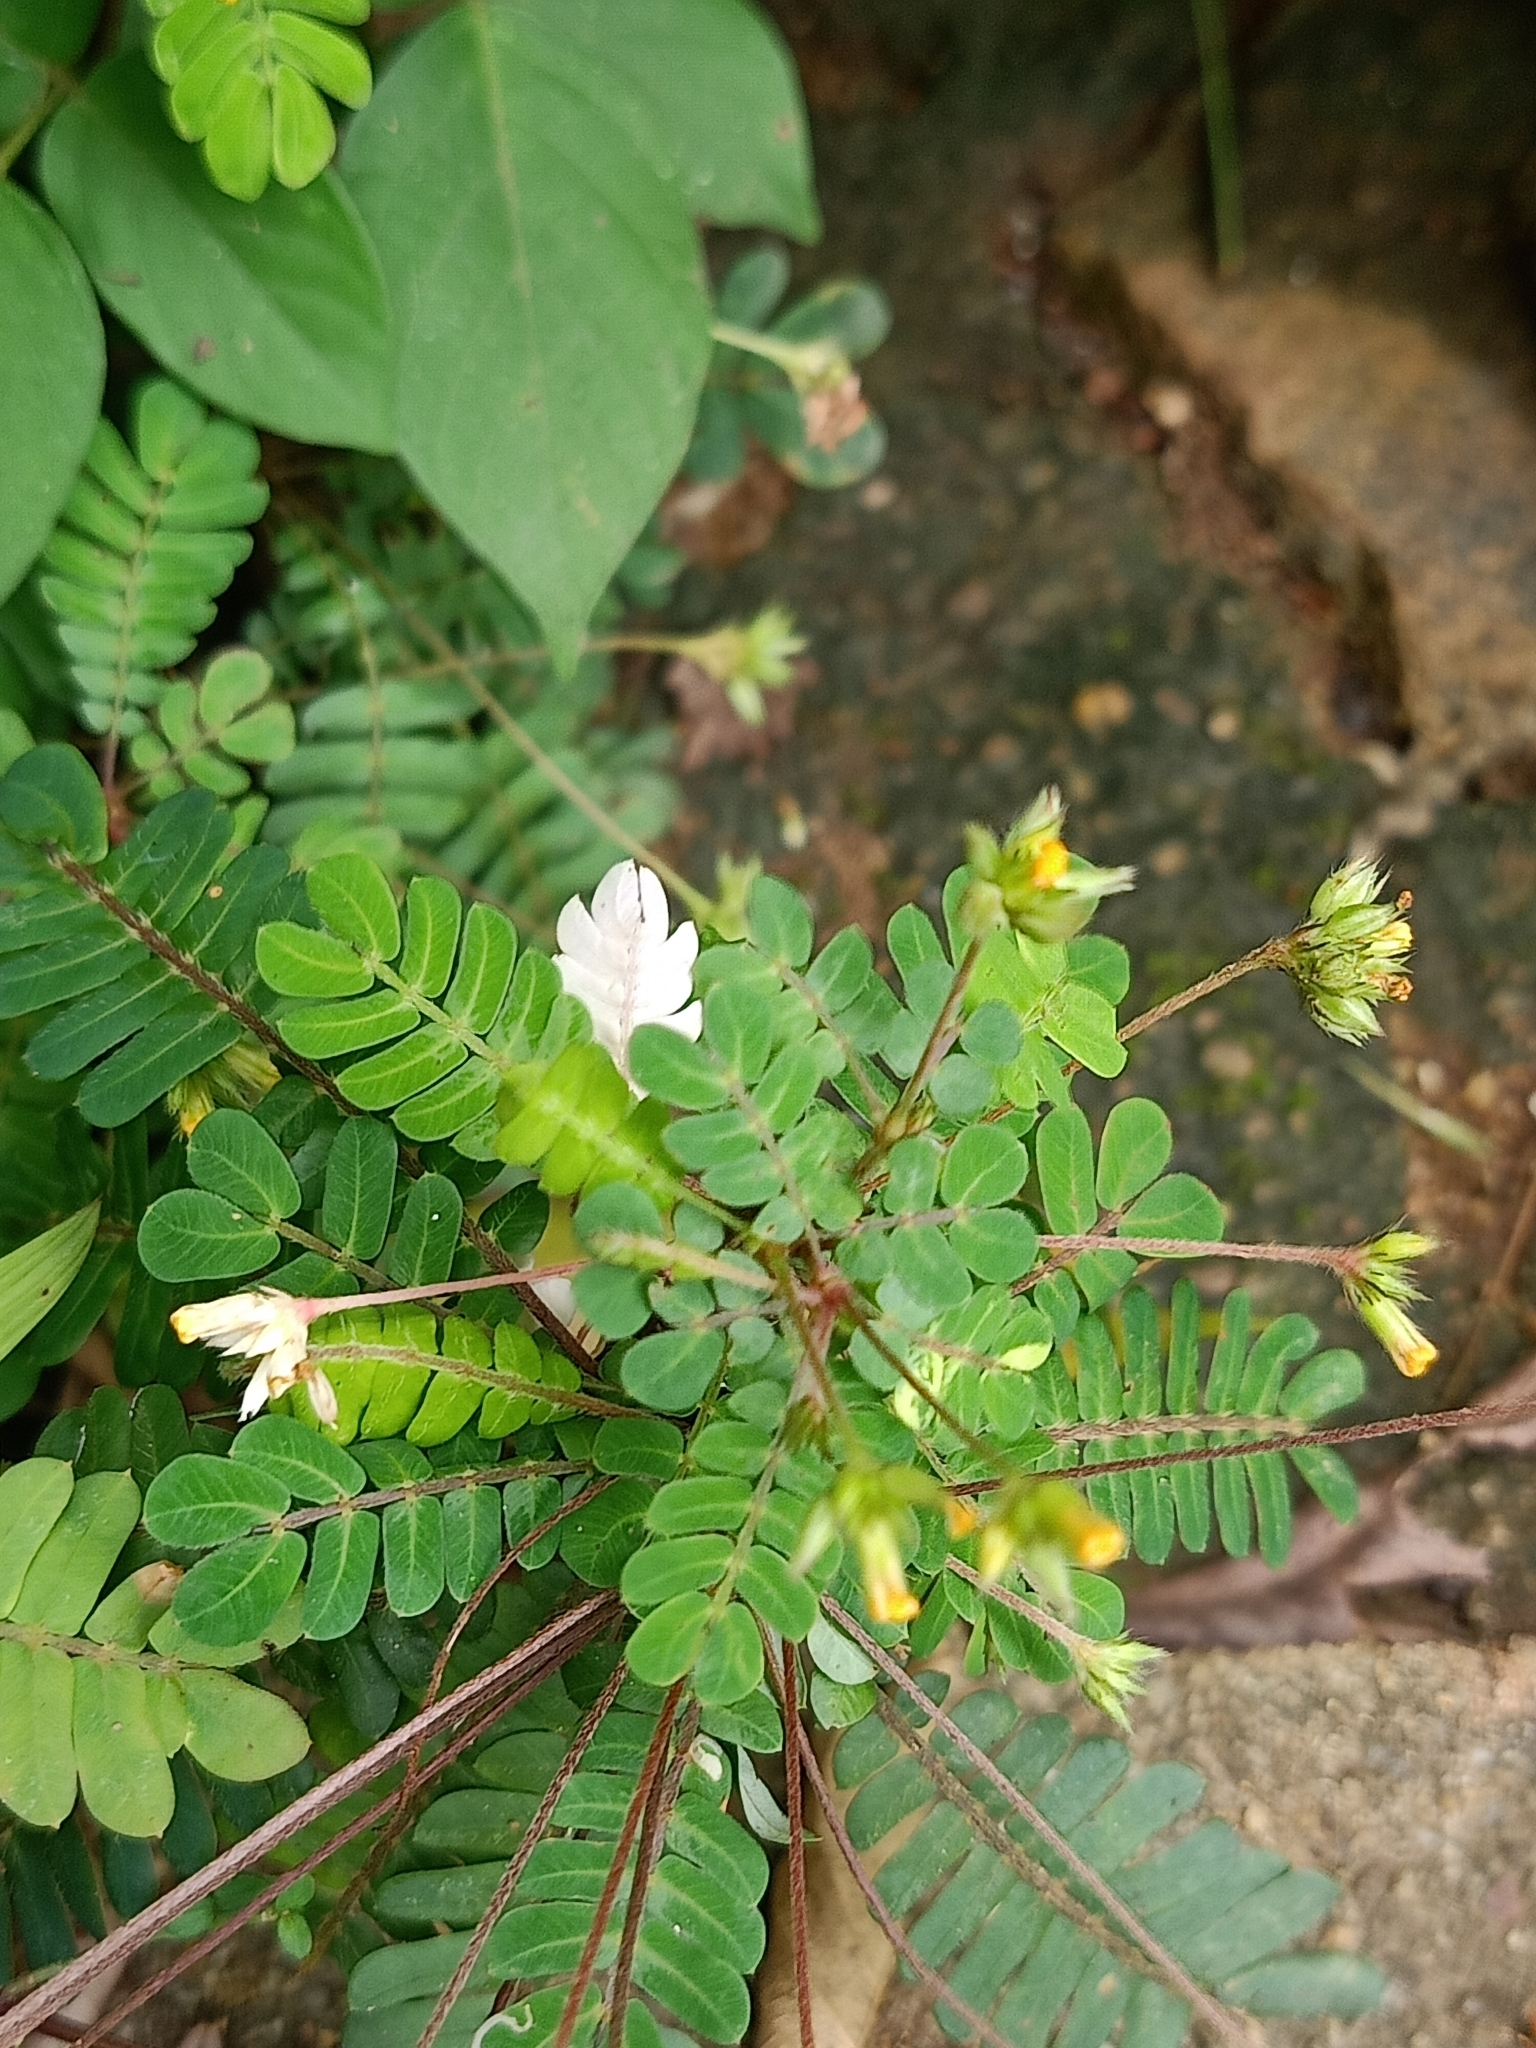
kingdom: Plantae
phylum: Tracheophyta
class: Magnoliopsida
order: Oxalidales
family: Oxalidaceae
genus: Biophytum
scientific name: Biophytum sensitivum
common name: Lifeplant
